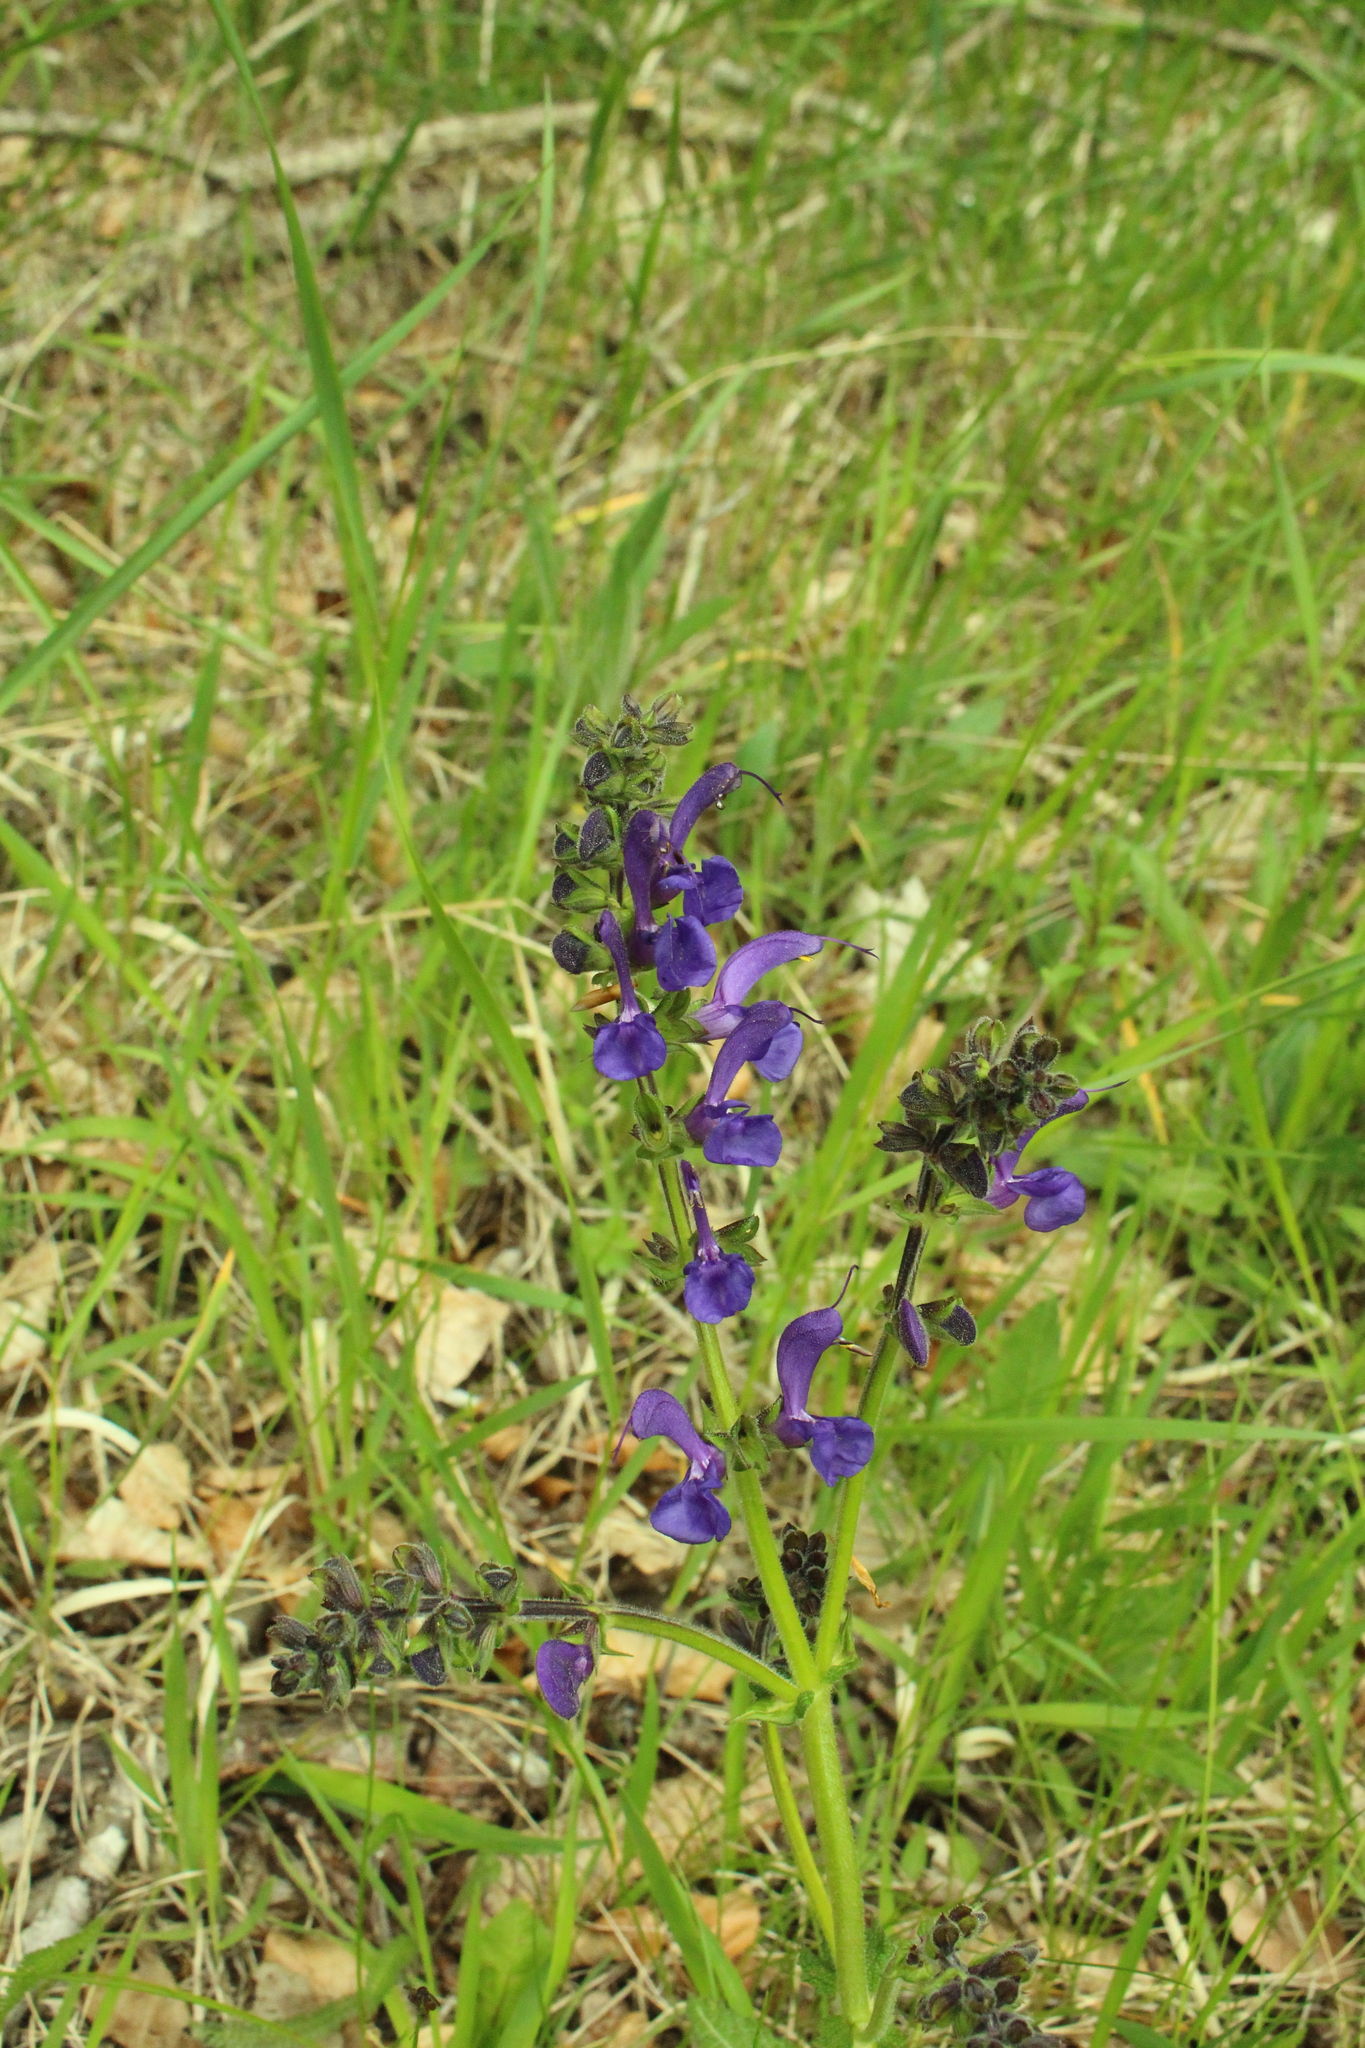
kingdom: Plantae
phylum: Tracheophyta
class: Magnoliopsida
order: Lamiales
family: Lamiaceae
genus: Salvia
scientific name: Salvia pratensis
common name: Meadow sage
